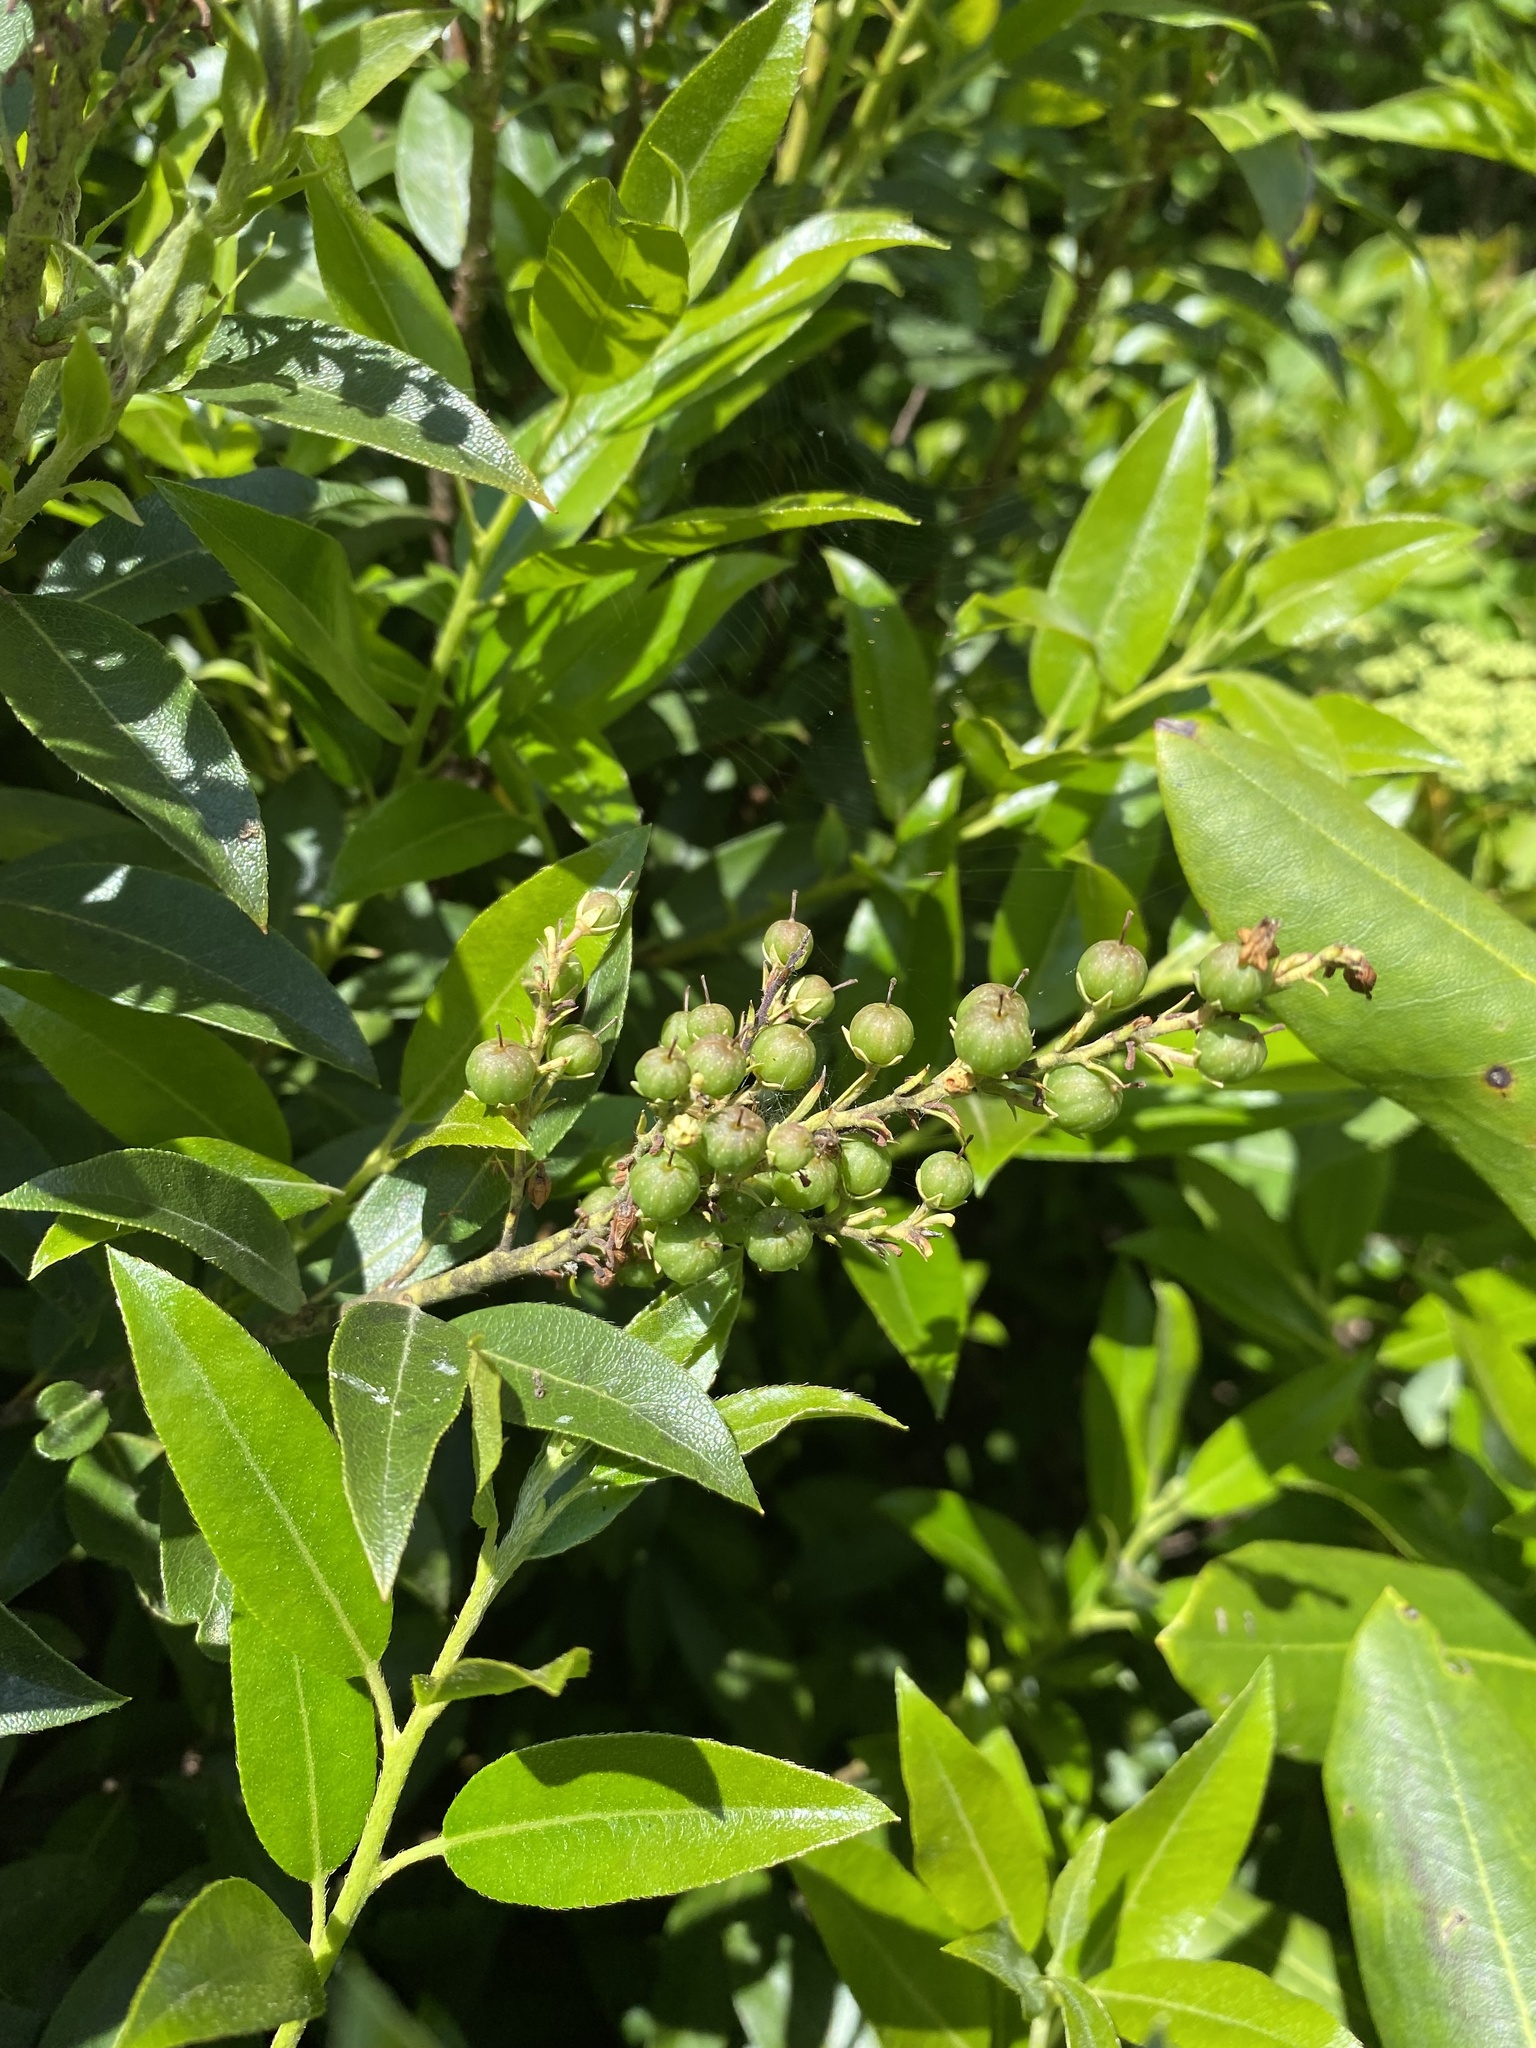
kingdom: Plantae
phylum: Tracheophyta
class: Magnoliopsida
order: Ericales
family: Ericaceae
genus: Pieris
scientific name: Pieris floribunda
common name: Flutterbush
